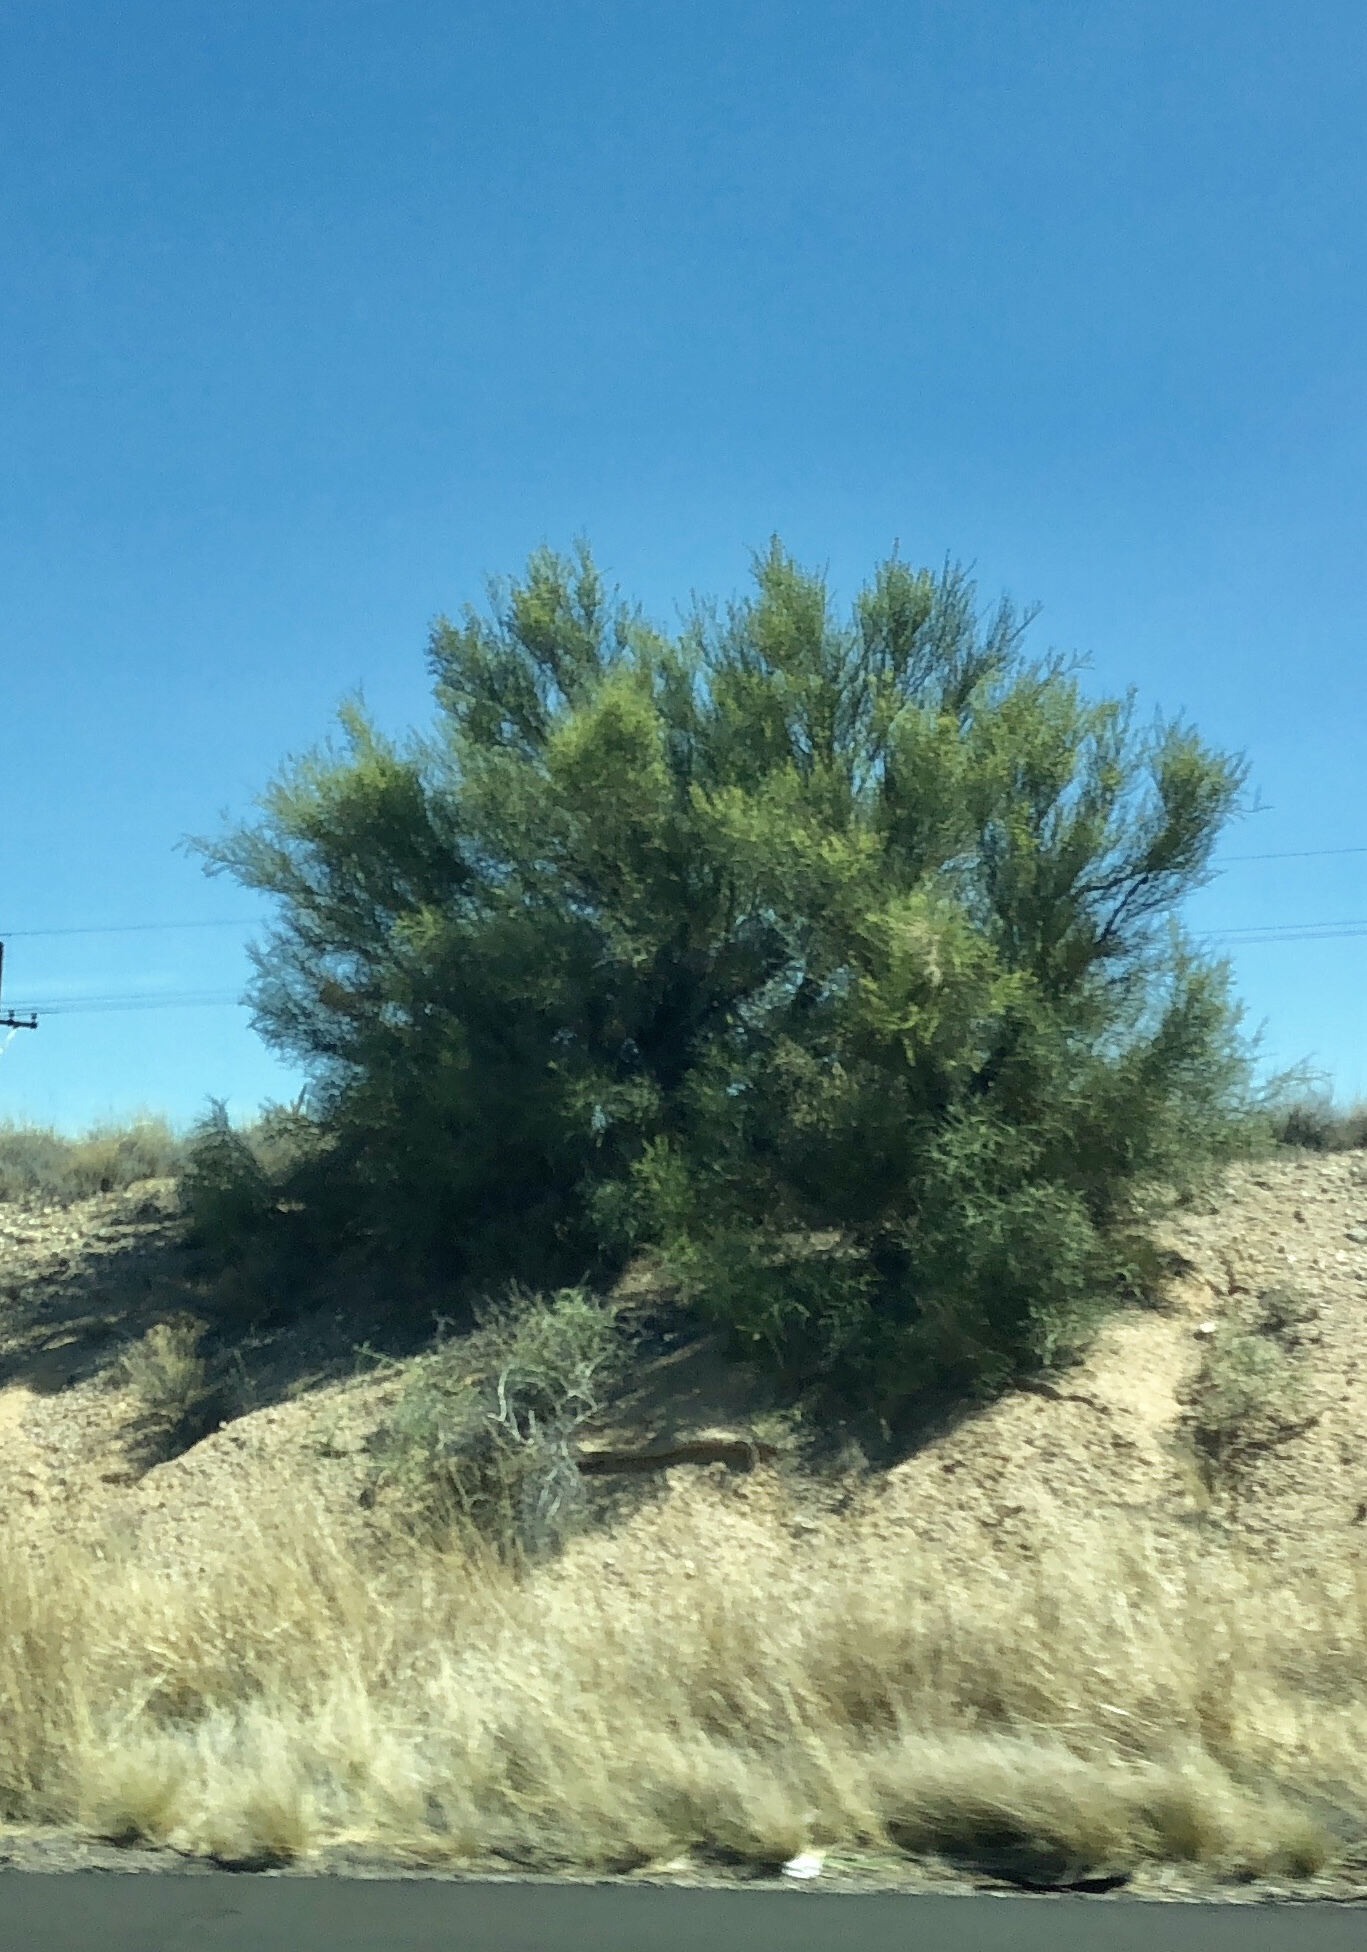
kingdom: Plantae
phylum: Tracheophyta
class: Magnoliopsida
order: Celastrales
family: Celastraceae
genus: Canotia
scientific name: Canotia holacantha
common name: Crucifixion thorns
